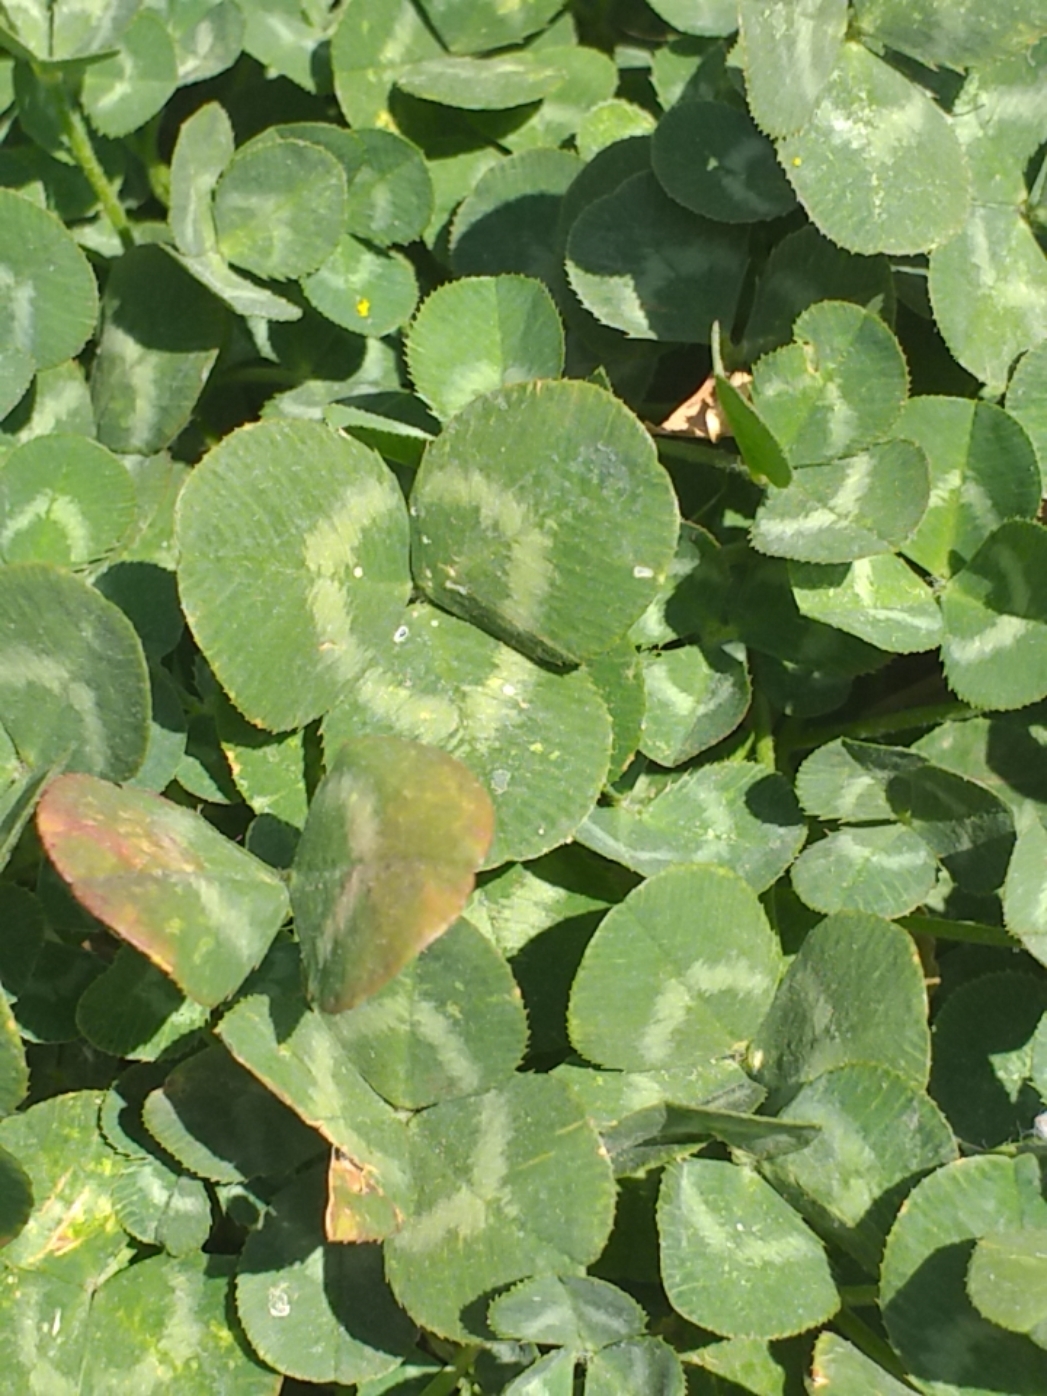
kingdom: Plantae
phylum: Tracheophyta
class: Magnoliopsida
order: Fabales
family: Fabaceae
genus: Trifolium
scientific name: Trifolium repens
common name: White clover
